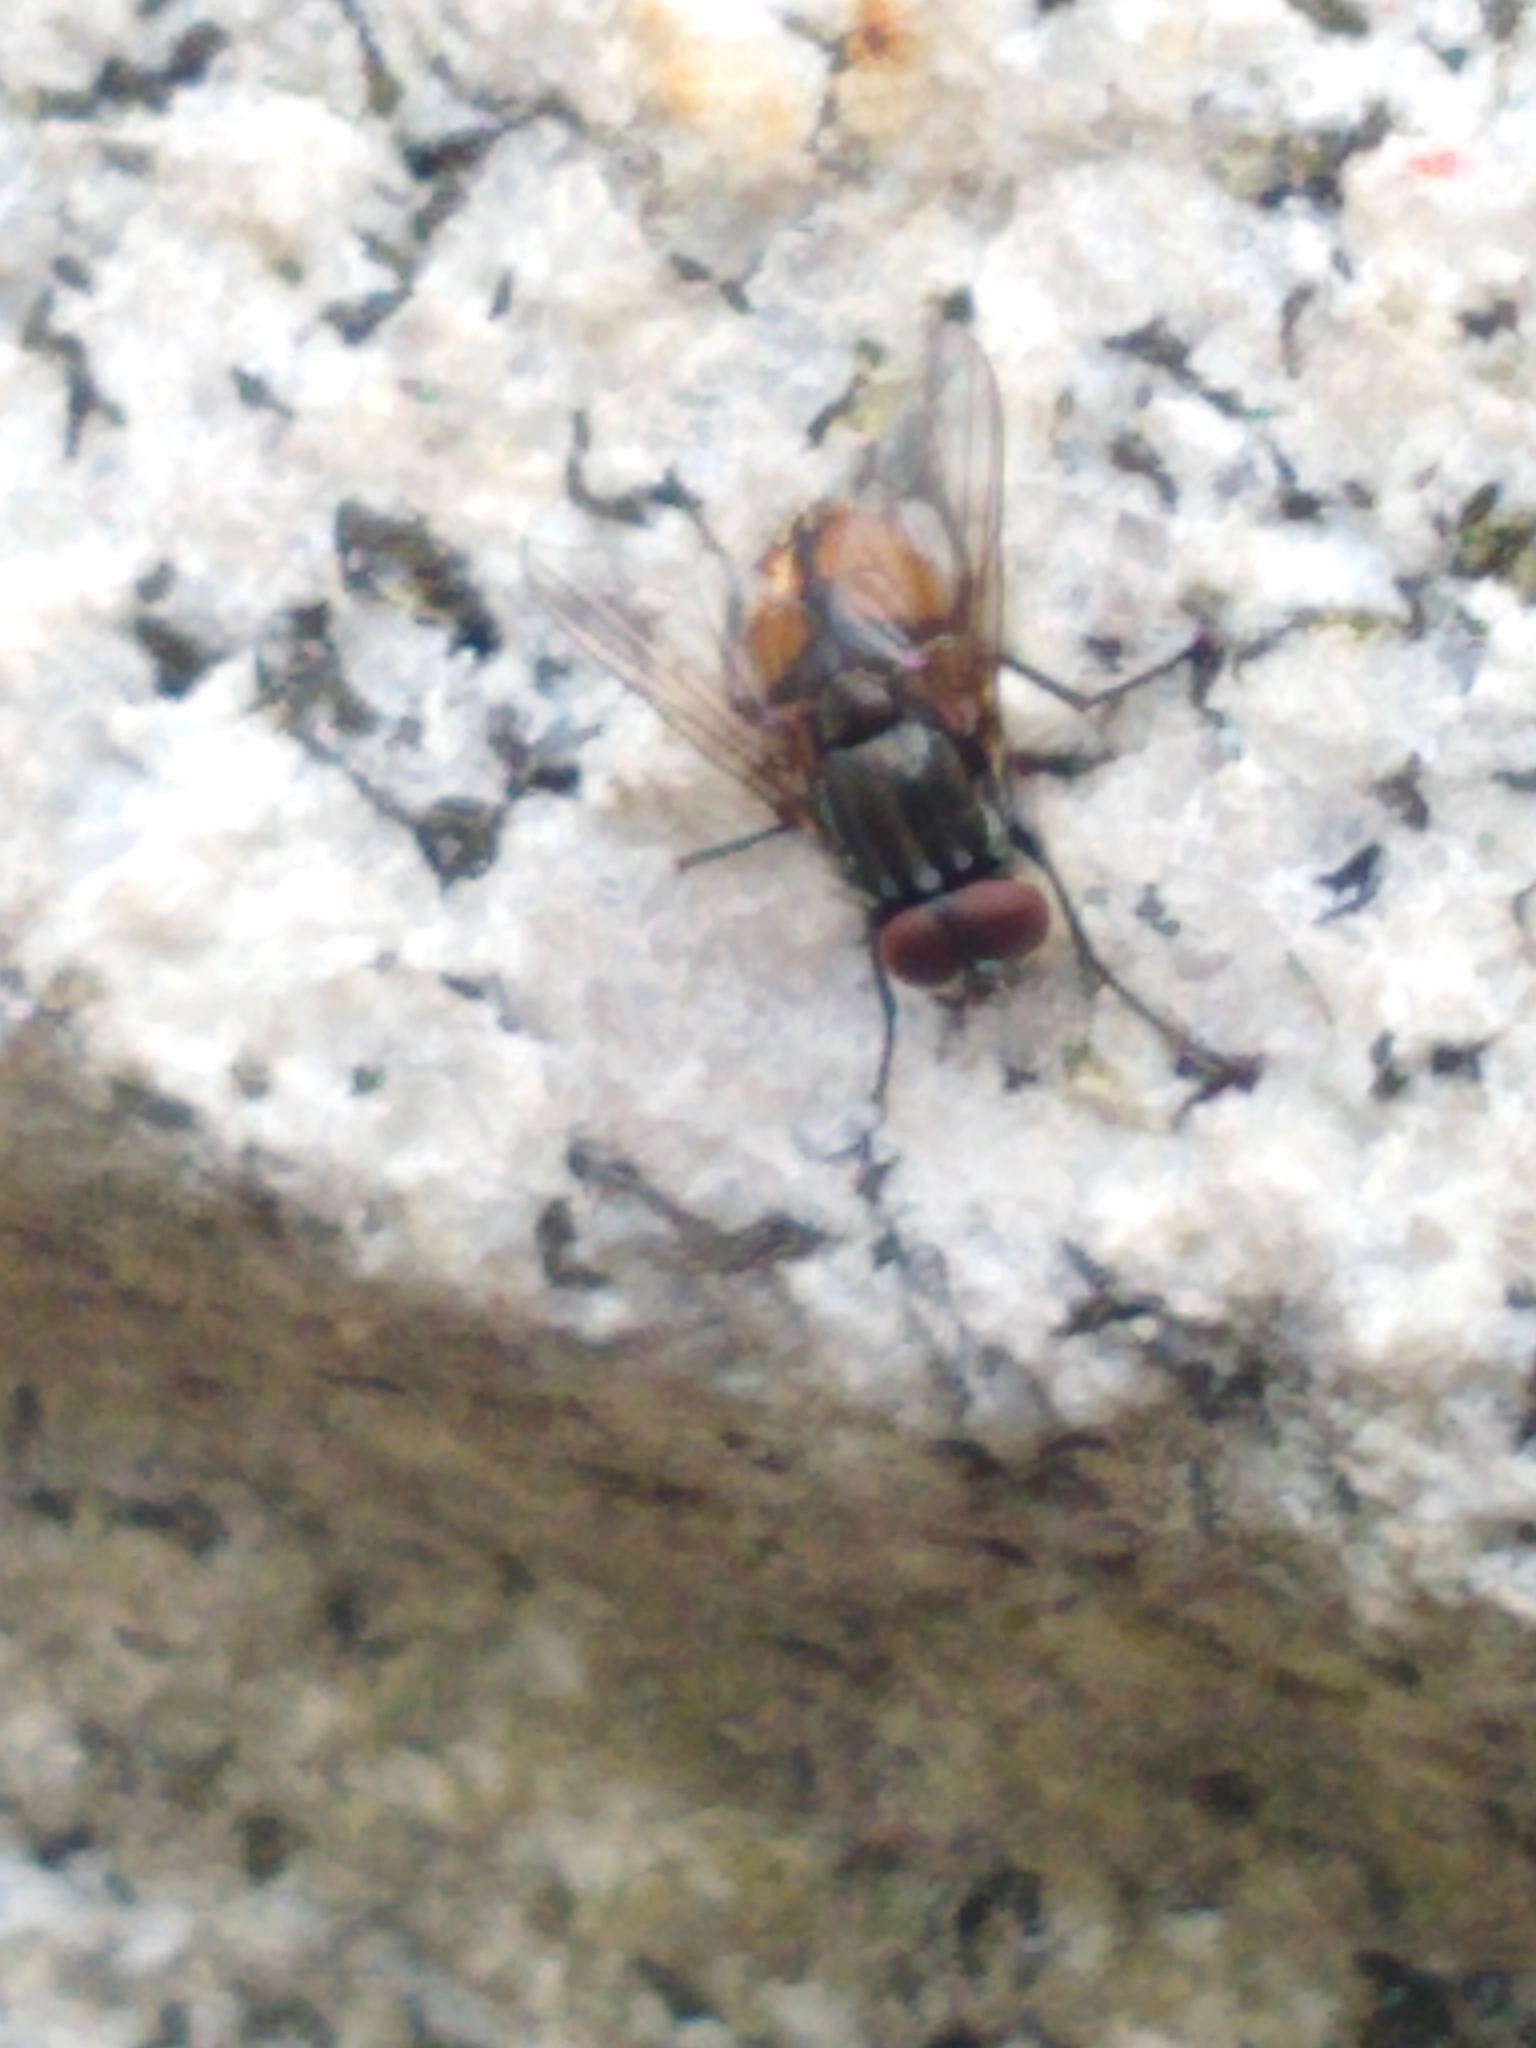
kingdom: Animalia
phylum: Arthropoda
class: Insecta
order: Diptera
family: Muscidae
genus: Musca
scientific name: Musca autumnalis
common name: Face fly
